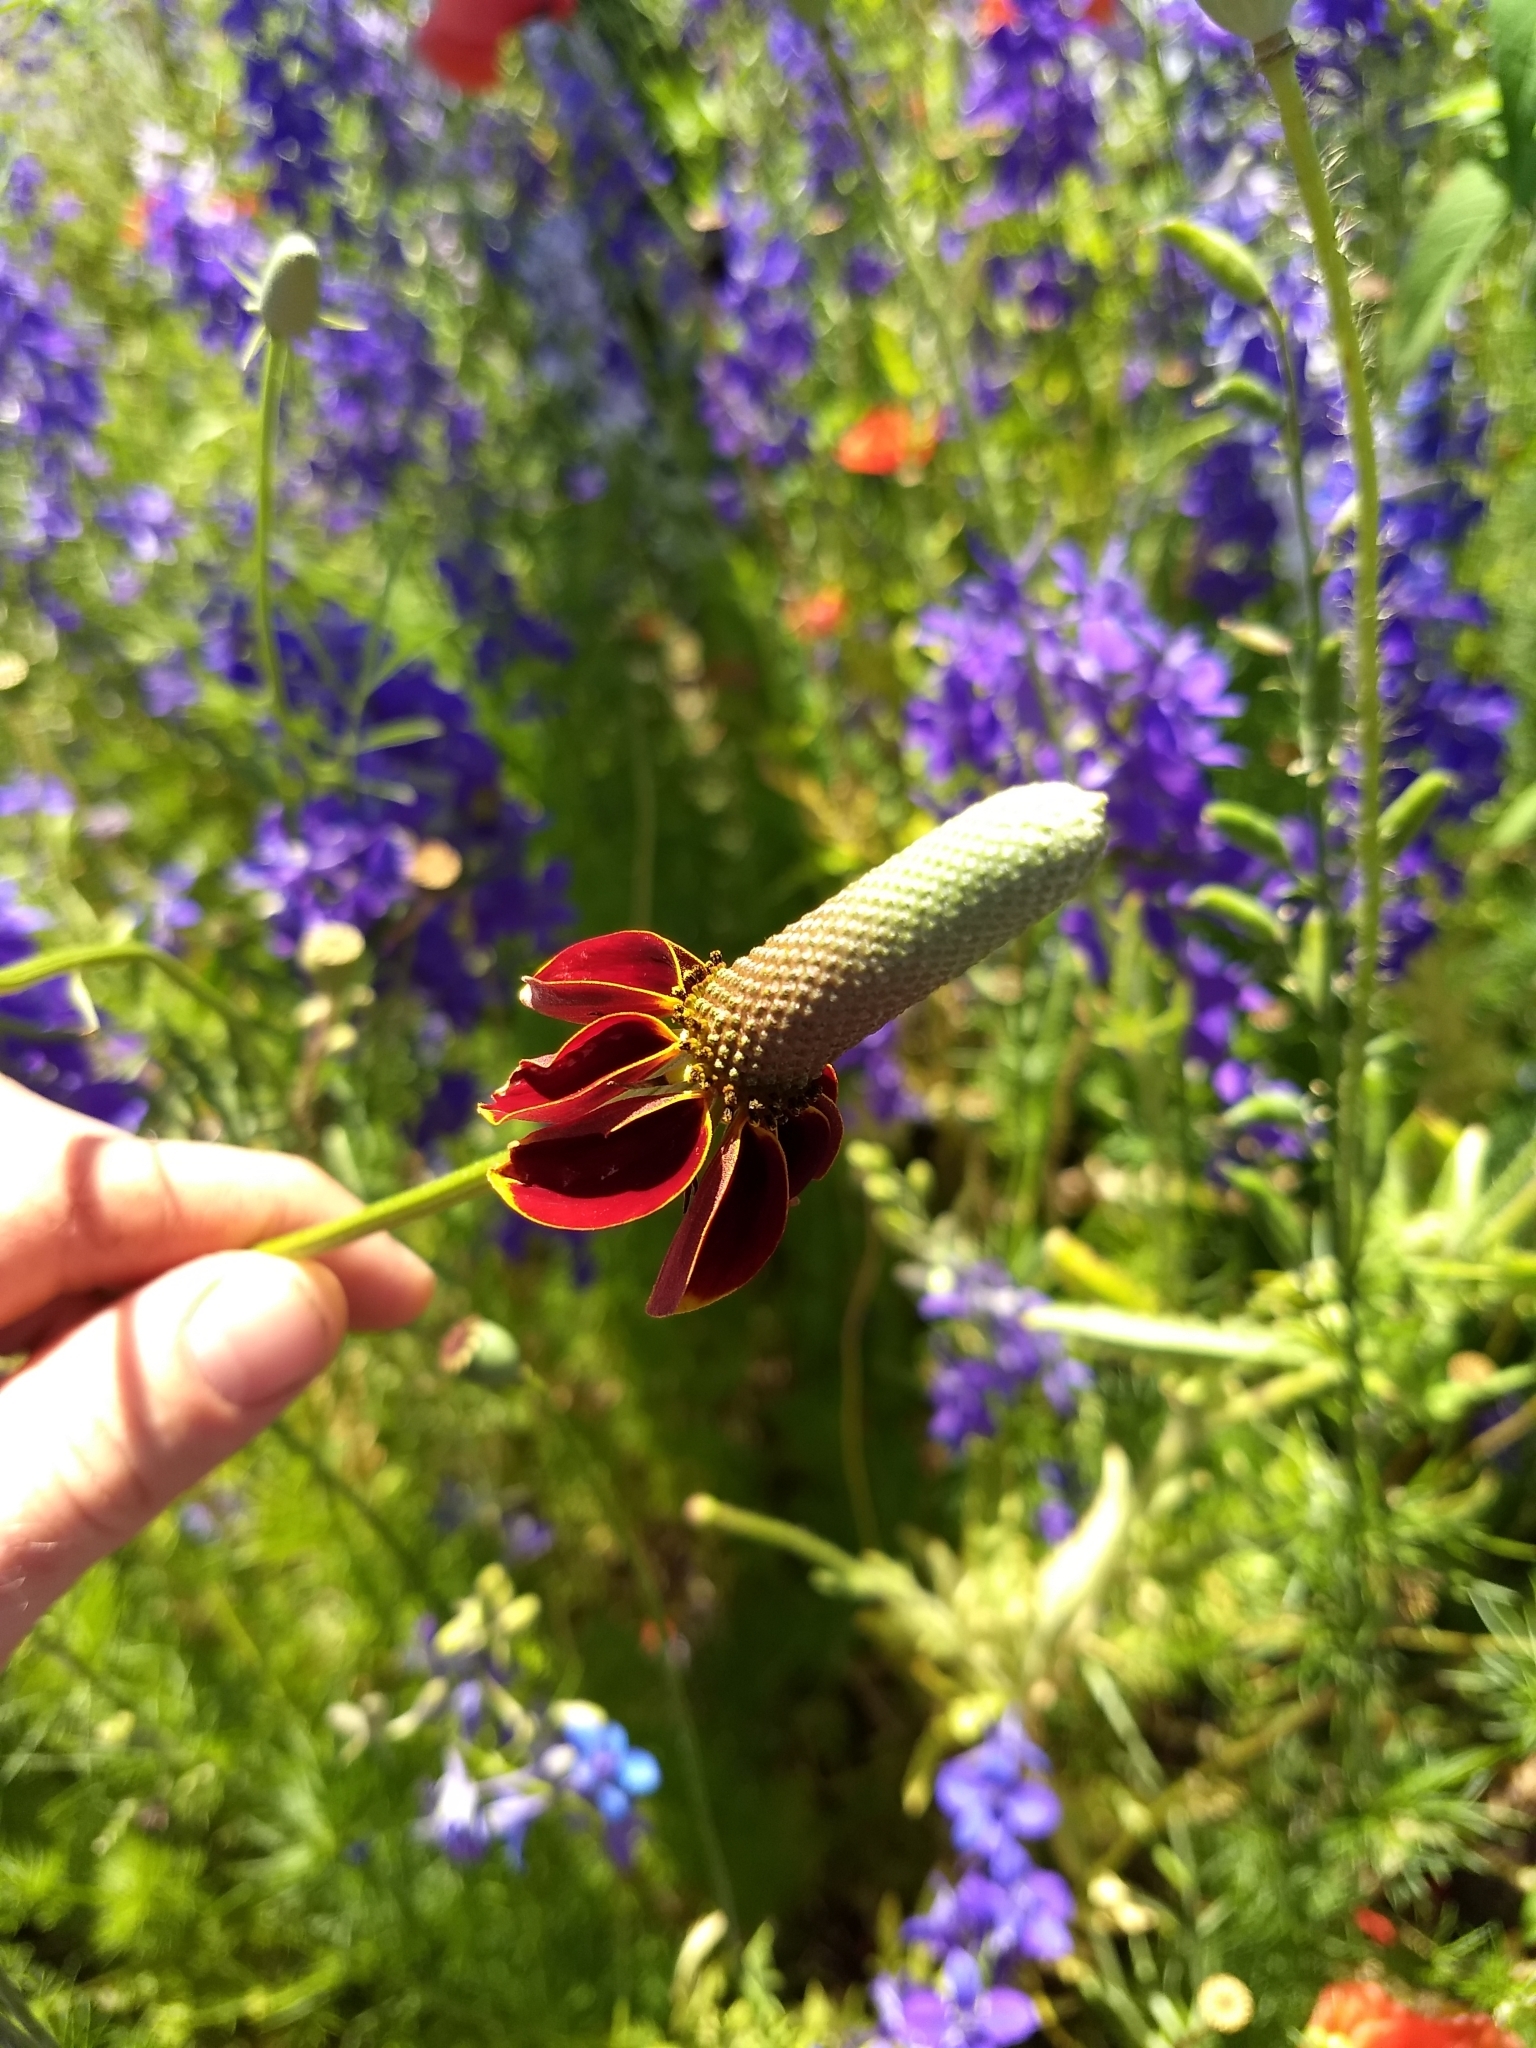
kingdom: Plantae
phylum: Tracheophyta
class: Magnoliopsida
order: Asterales
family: Asteraceae
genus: Ratibida
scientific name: Ratibida columnifera
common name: Prairie coneflower
